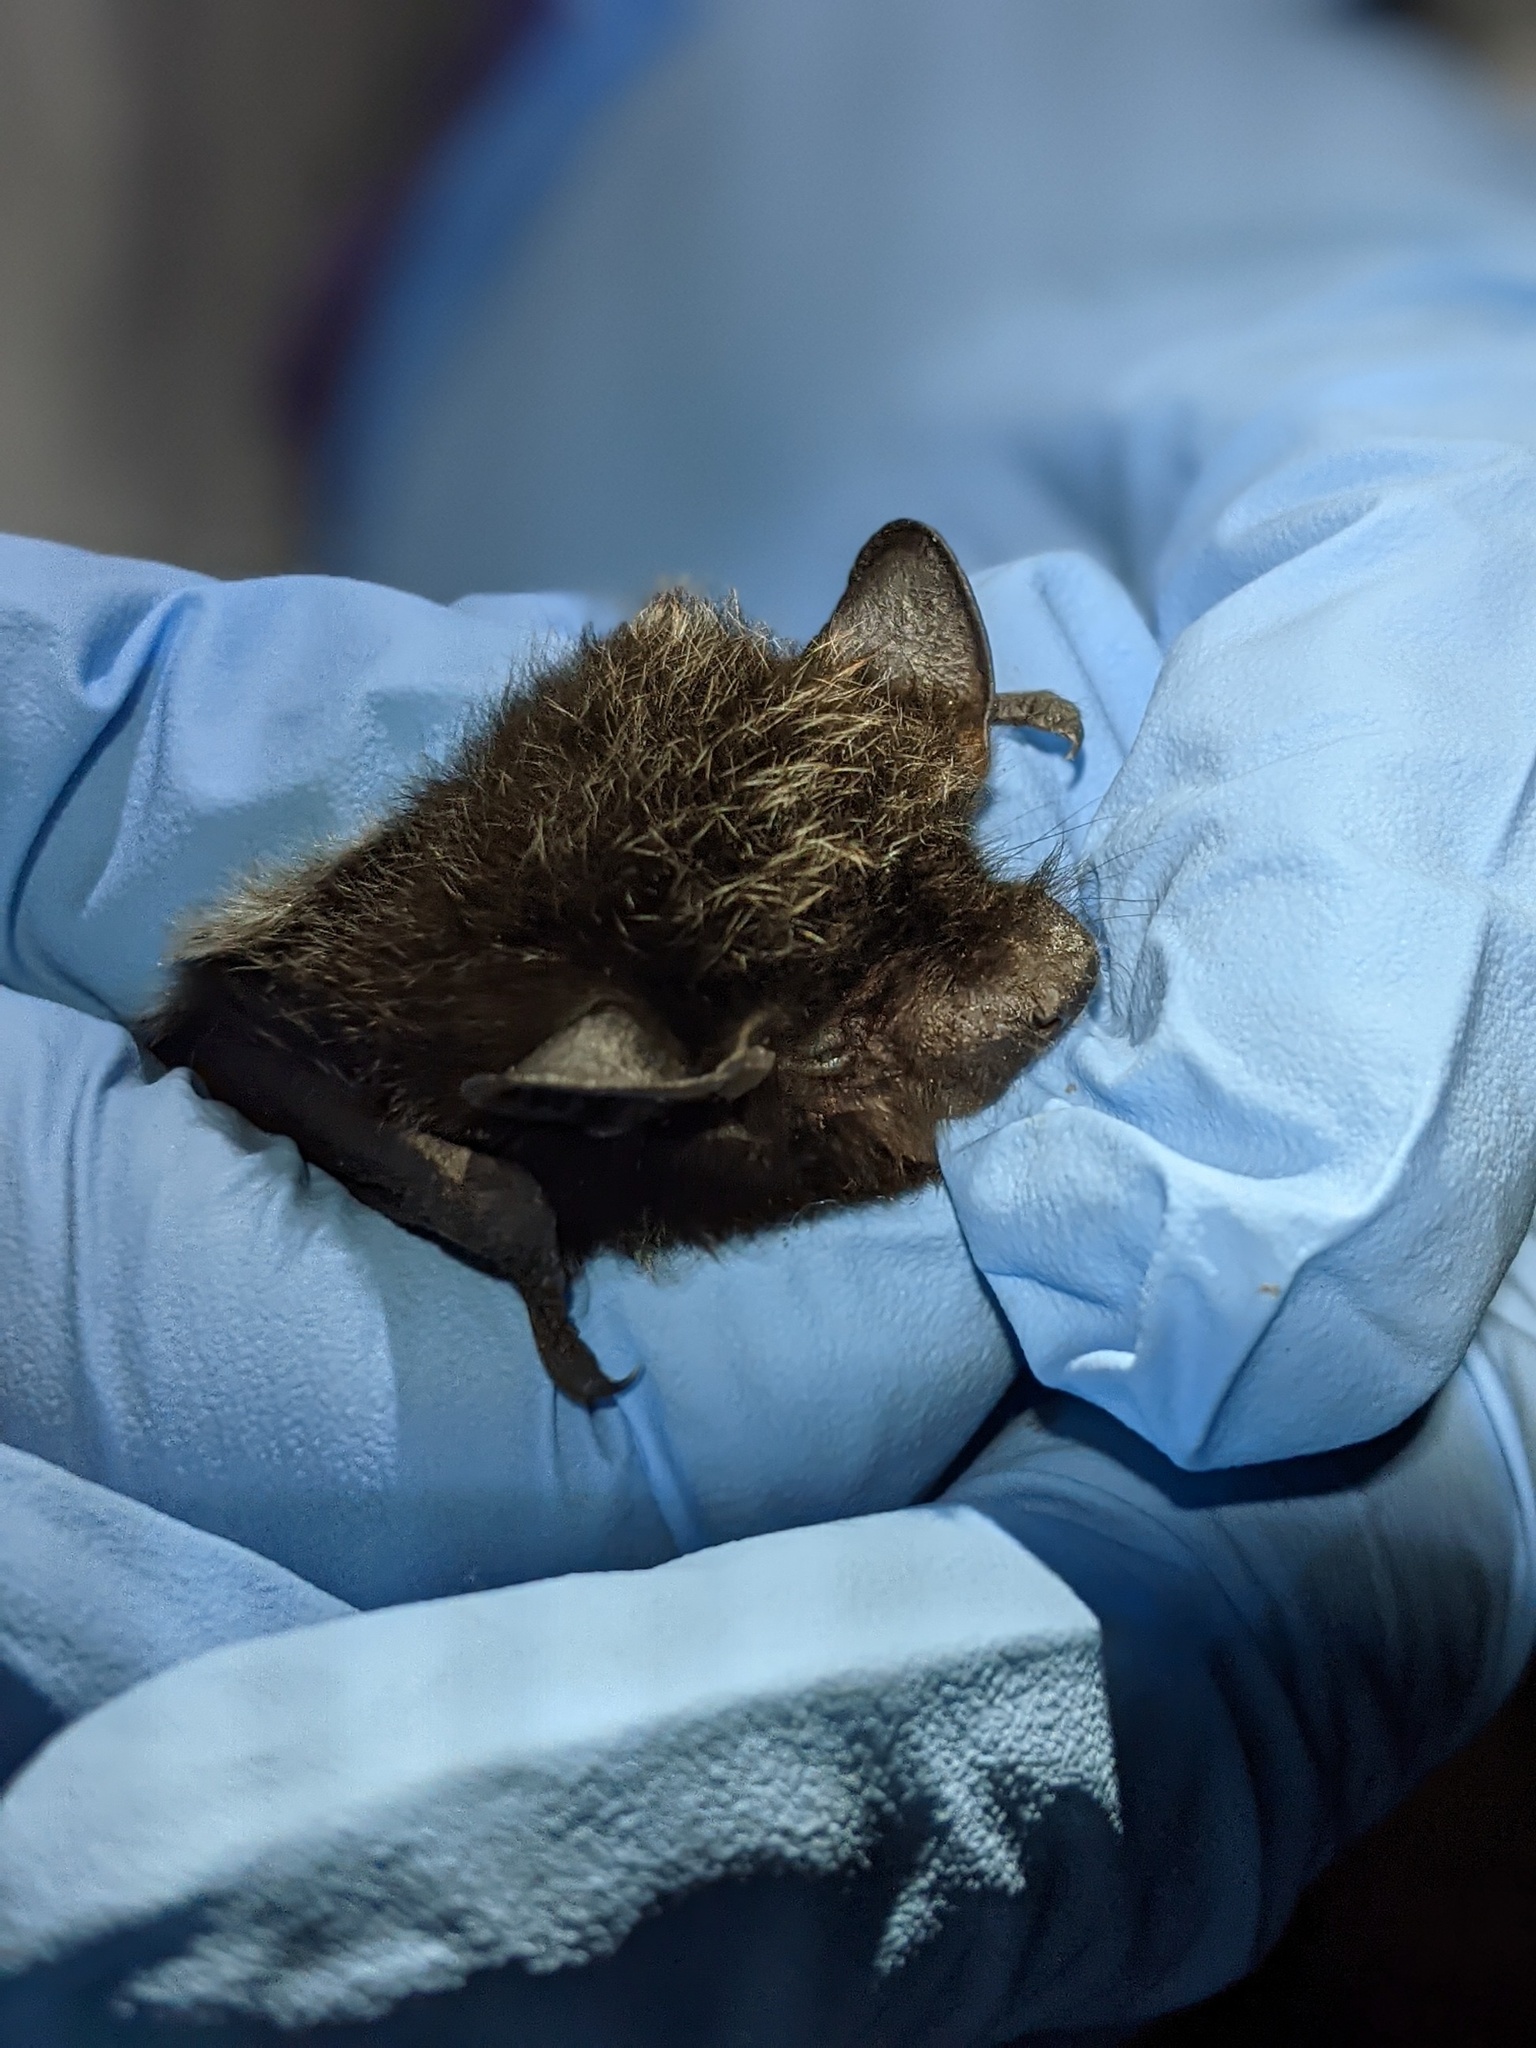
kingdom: Animalia
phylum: Chordata
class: Mammalia
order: Chiroptera
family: Vespertilionidae
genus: Lasionycteris
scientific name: Lasionycteris noctivagans
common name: Silver-haired bat
